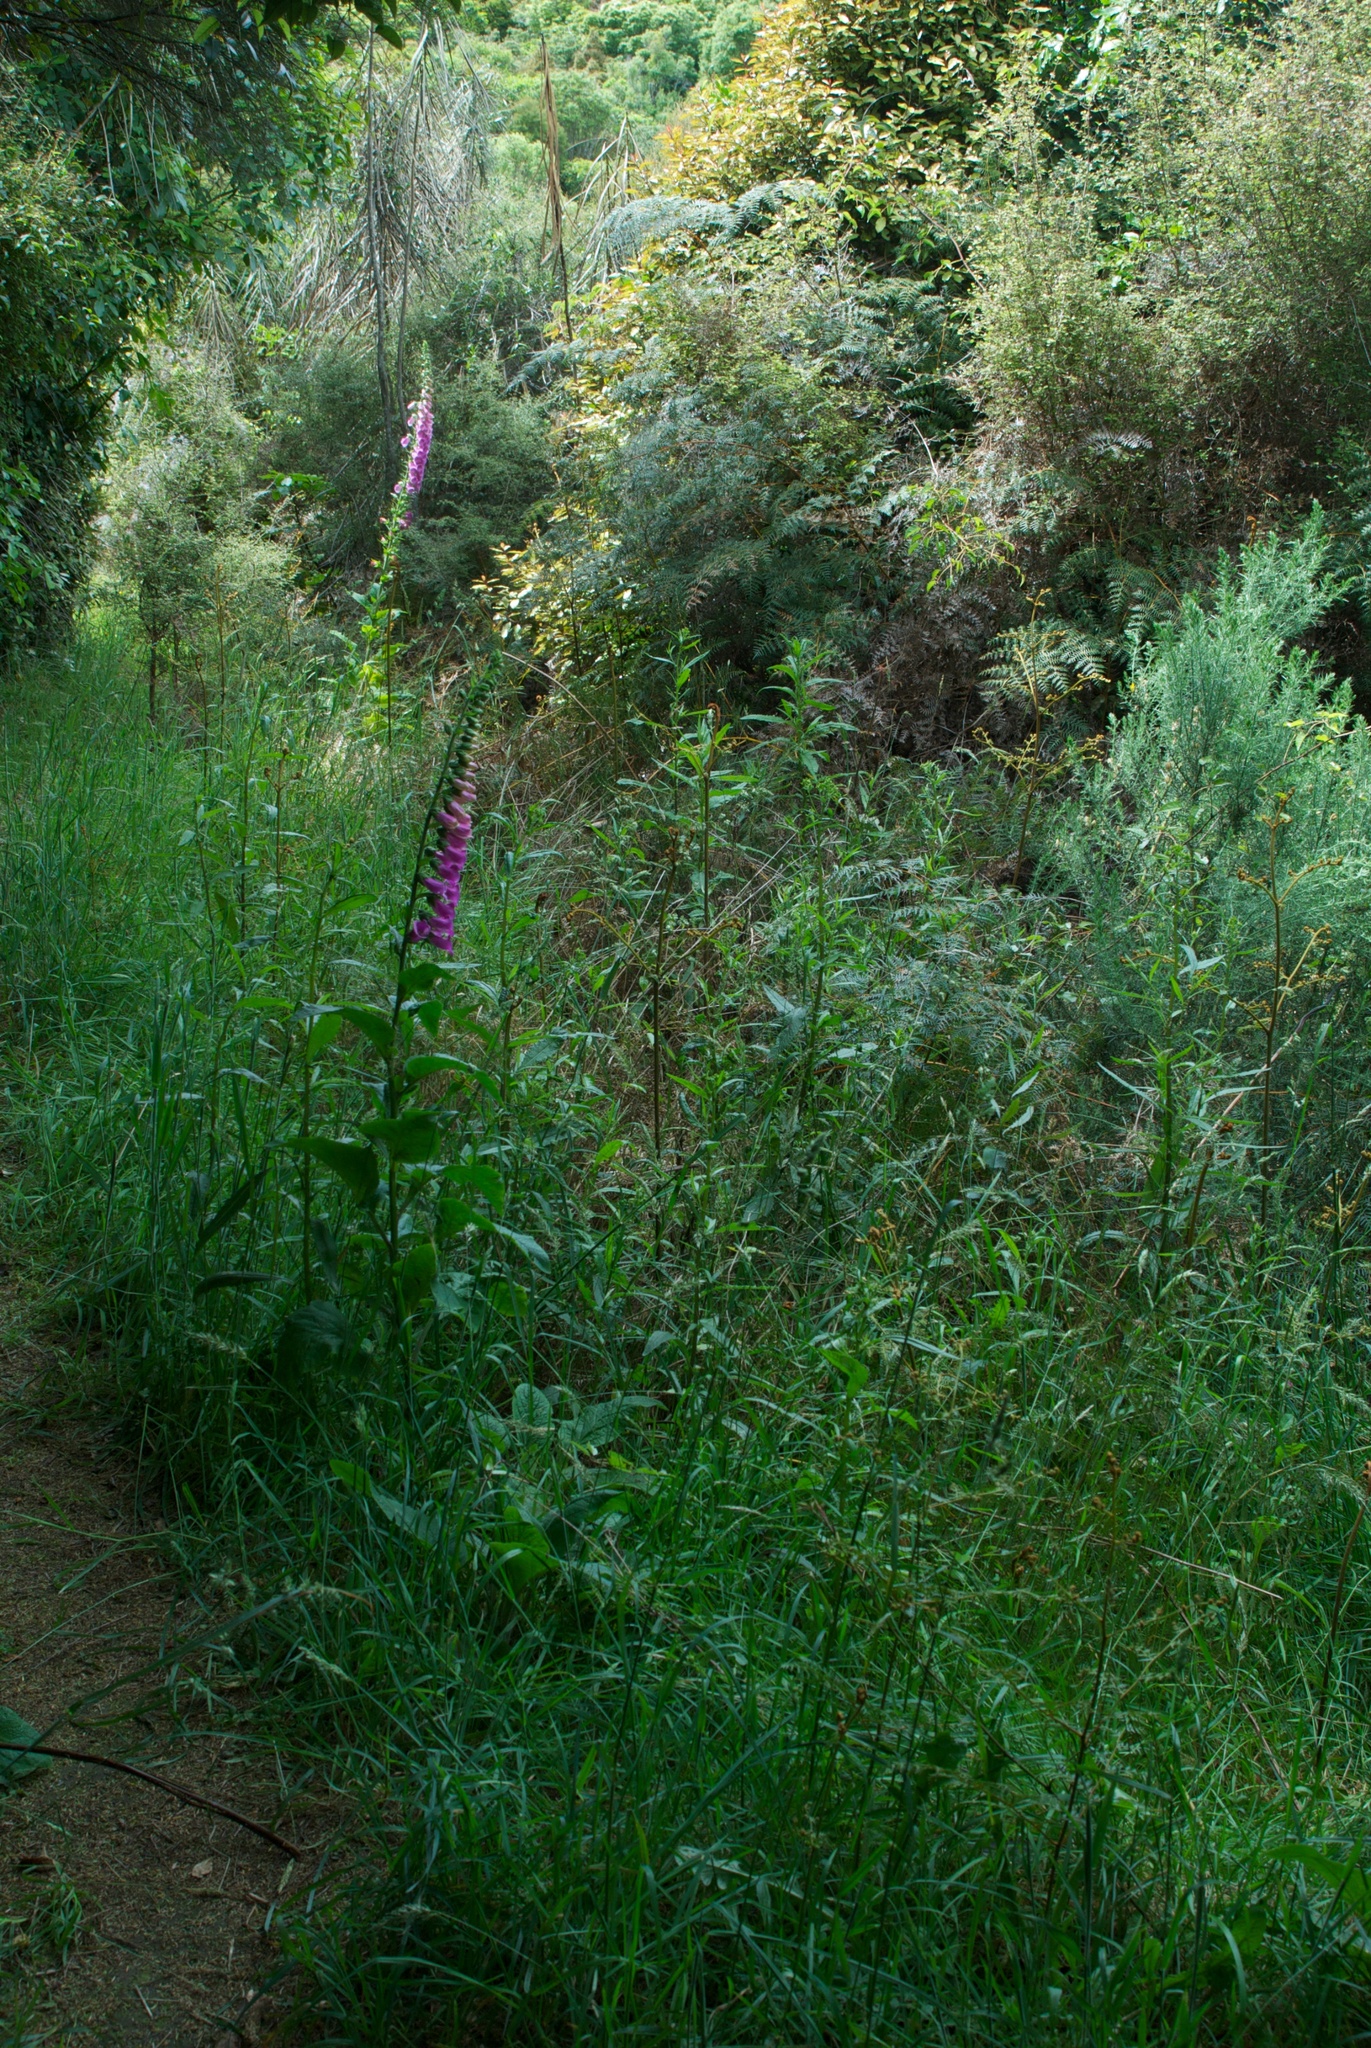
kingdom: Plantae
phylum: Tracheophyta
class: Magnoliopsida
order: Asterales
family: Asteraceae
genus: Senecio
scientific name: Senecio minimus
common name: Toothed fireweed
